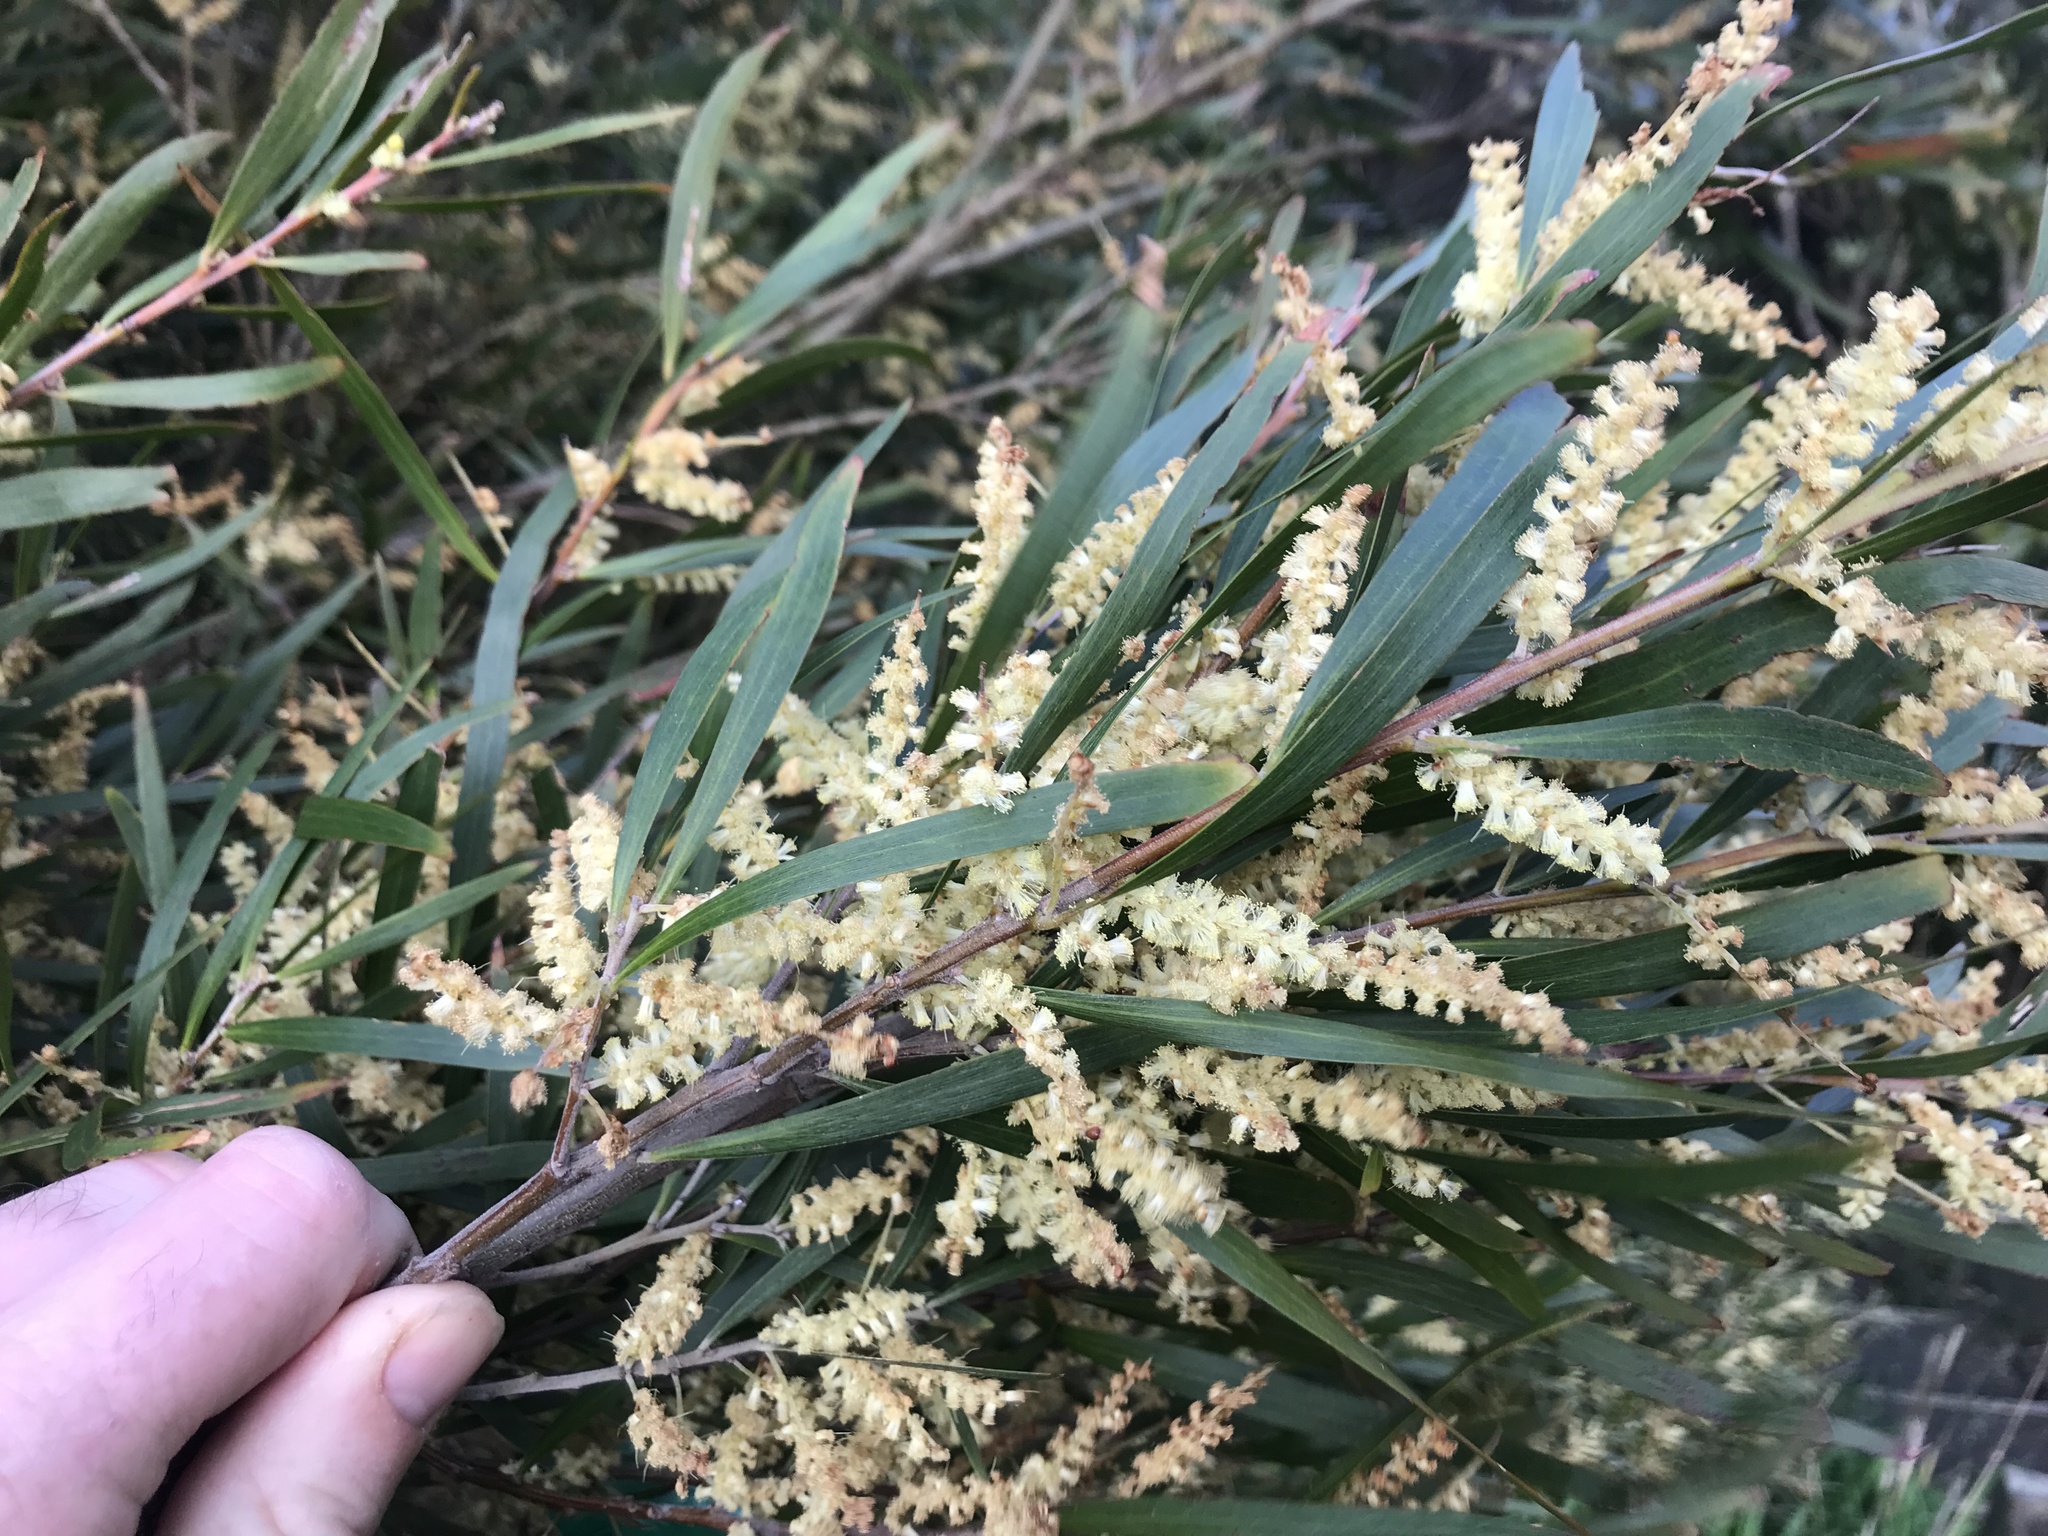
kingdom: Plantae
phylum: Tracheophyta
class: Magnoliopsida
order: Fabales
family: Fabaceae
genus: Acacia
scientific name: Acacia longifolia
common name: Sydney golden wattle
